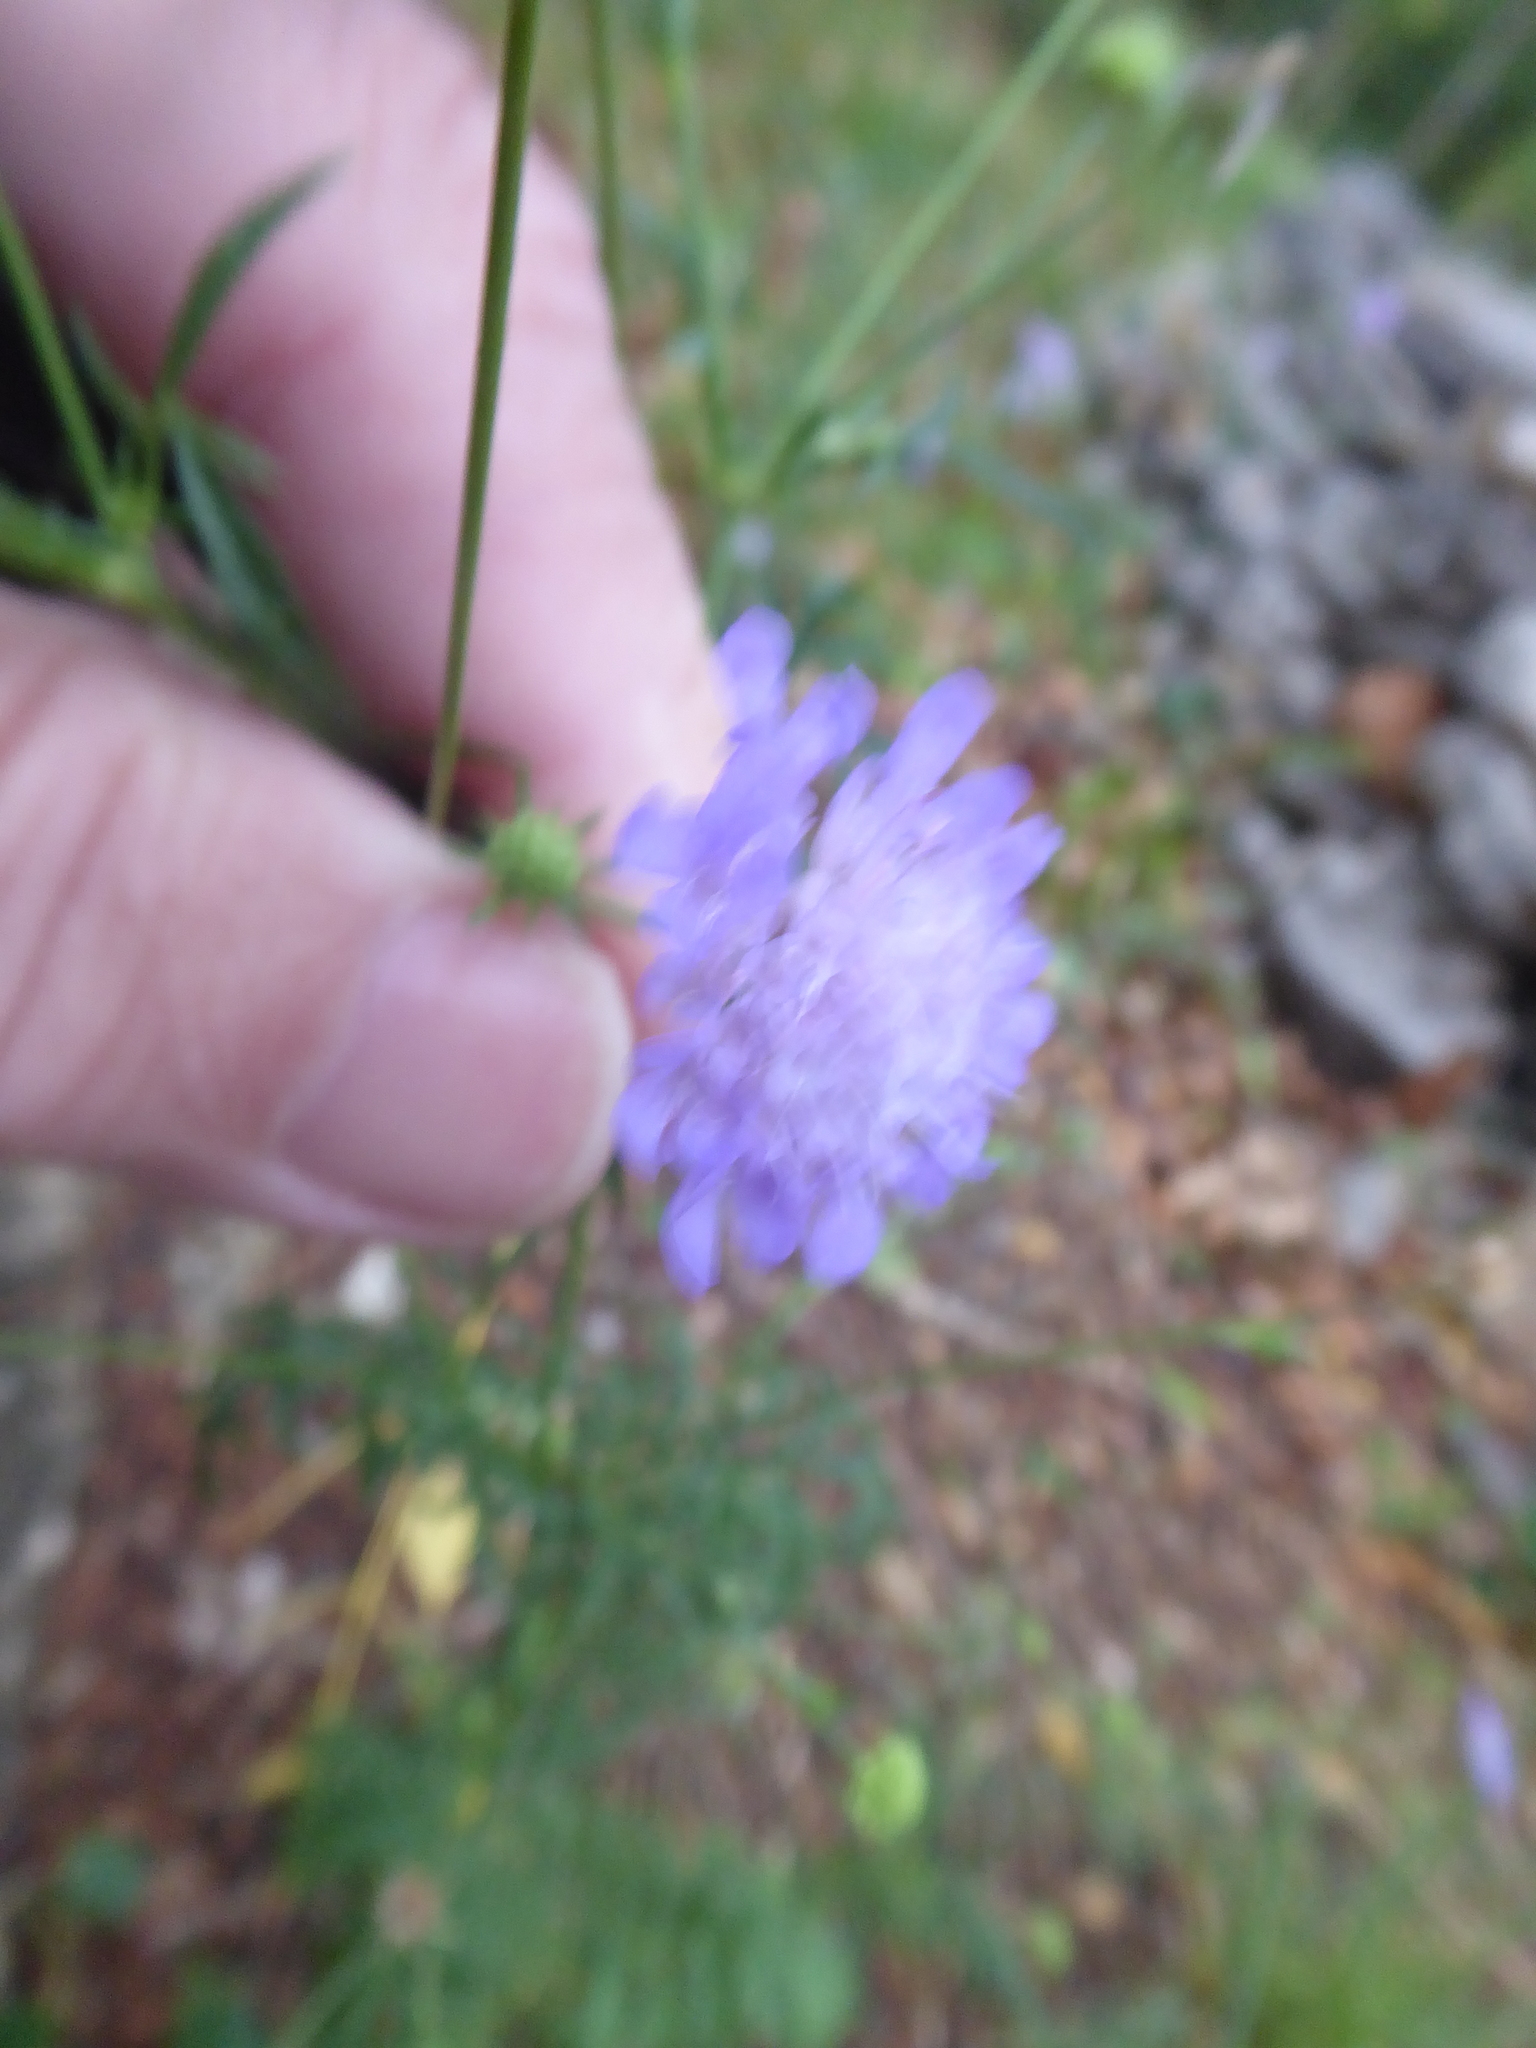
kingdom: Plantae
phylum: Tracheophyta
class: Magnoliopsida
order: Dipsacales
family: Caprifoliaceae
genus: Scabiosa
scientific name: Scabiosa triandra
